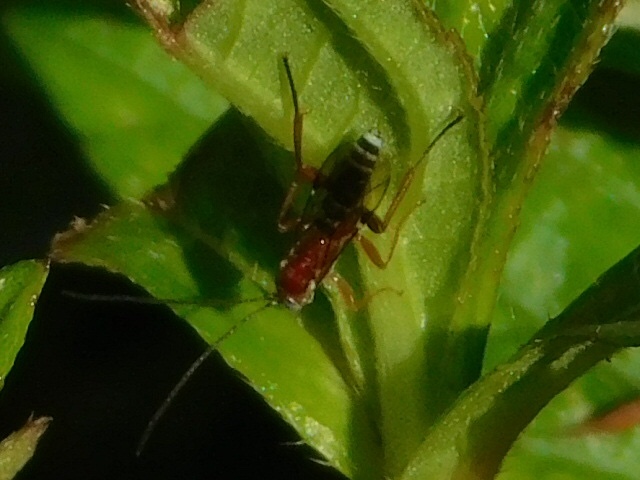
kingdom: Animalia
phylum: Arthropoda
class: Insecta
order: Hymenoptera
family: Ichneumonidae
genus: Pimpla
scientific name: Pimpla marginella
